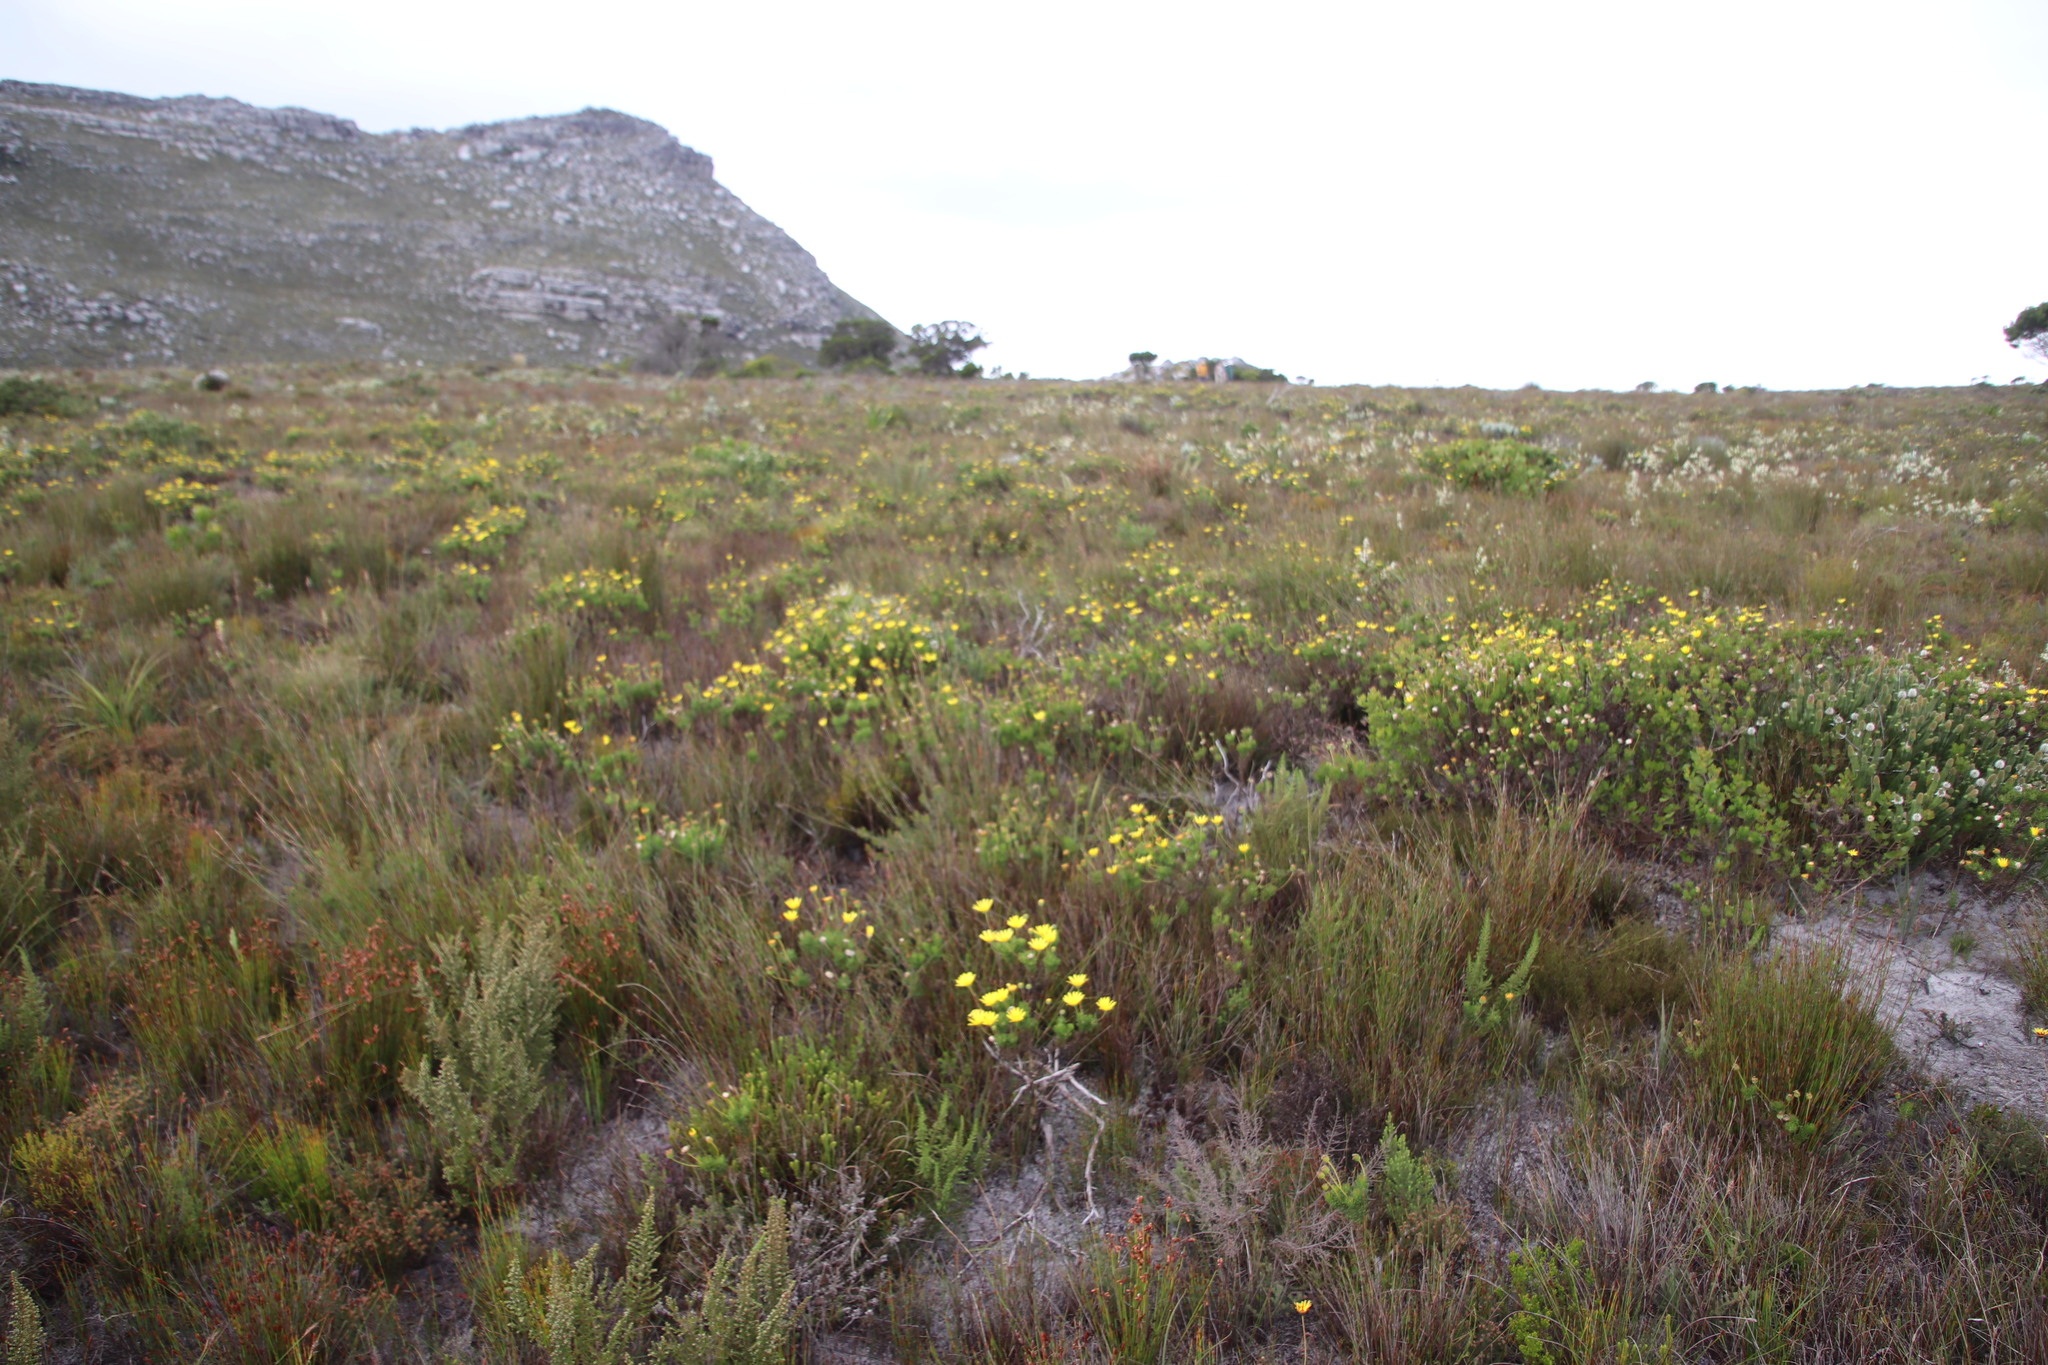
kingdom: Plantae
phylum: Tracheophyta
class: Magnoliopsida
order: Asterales
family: Asteraceae
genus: Euryops
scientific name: Euryops abrotanifolius
